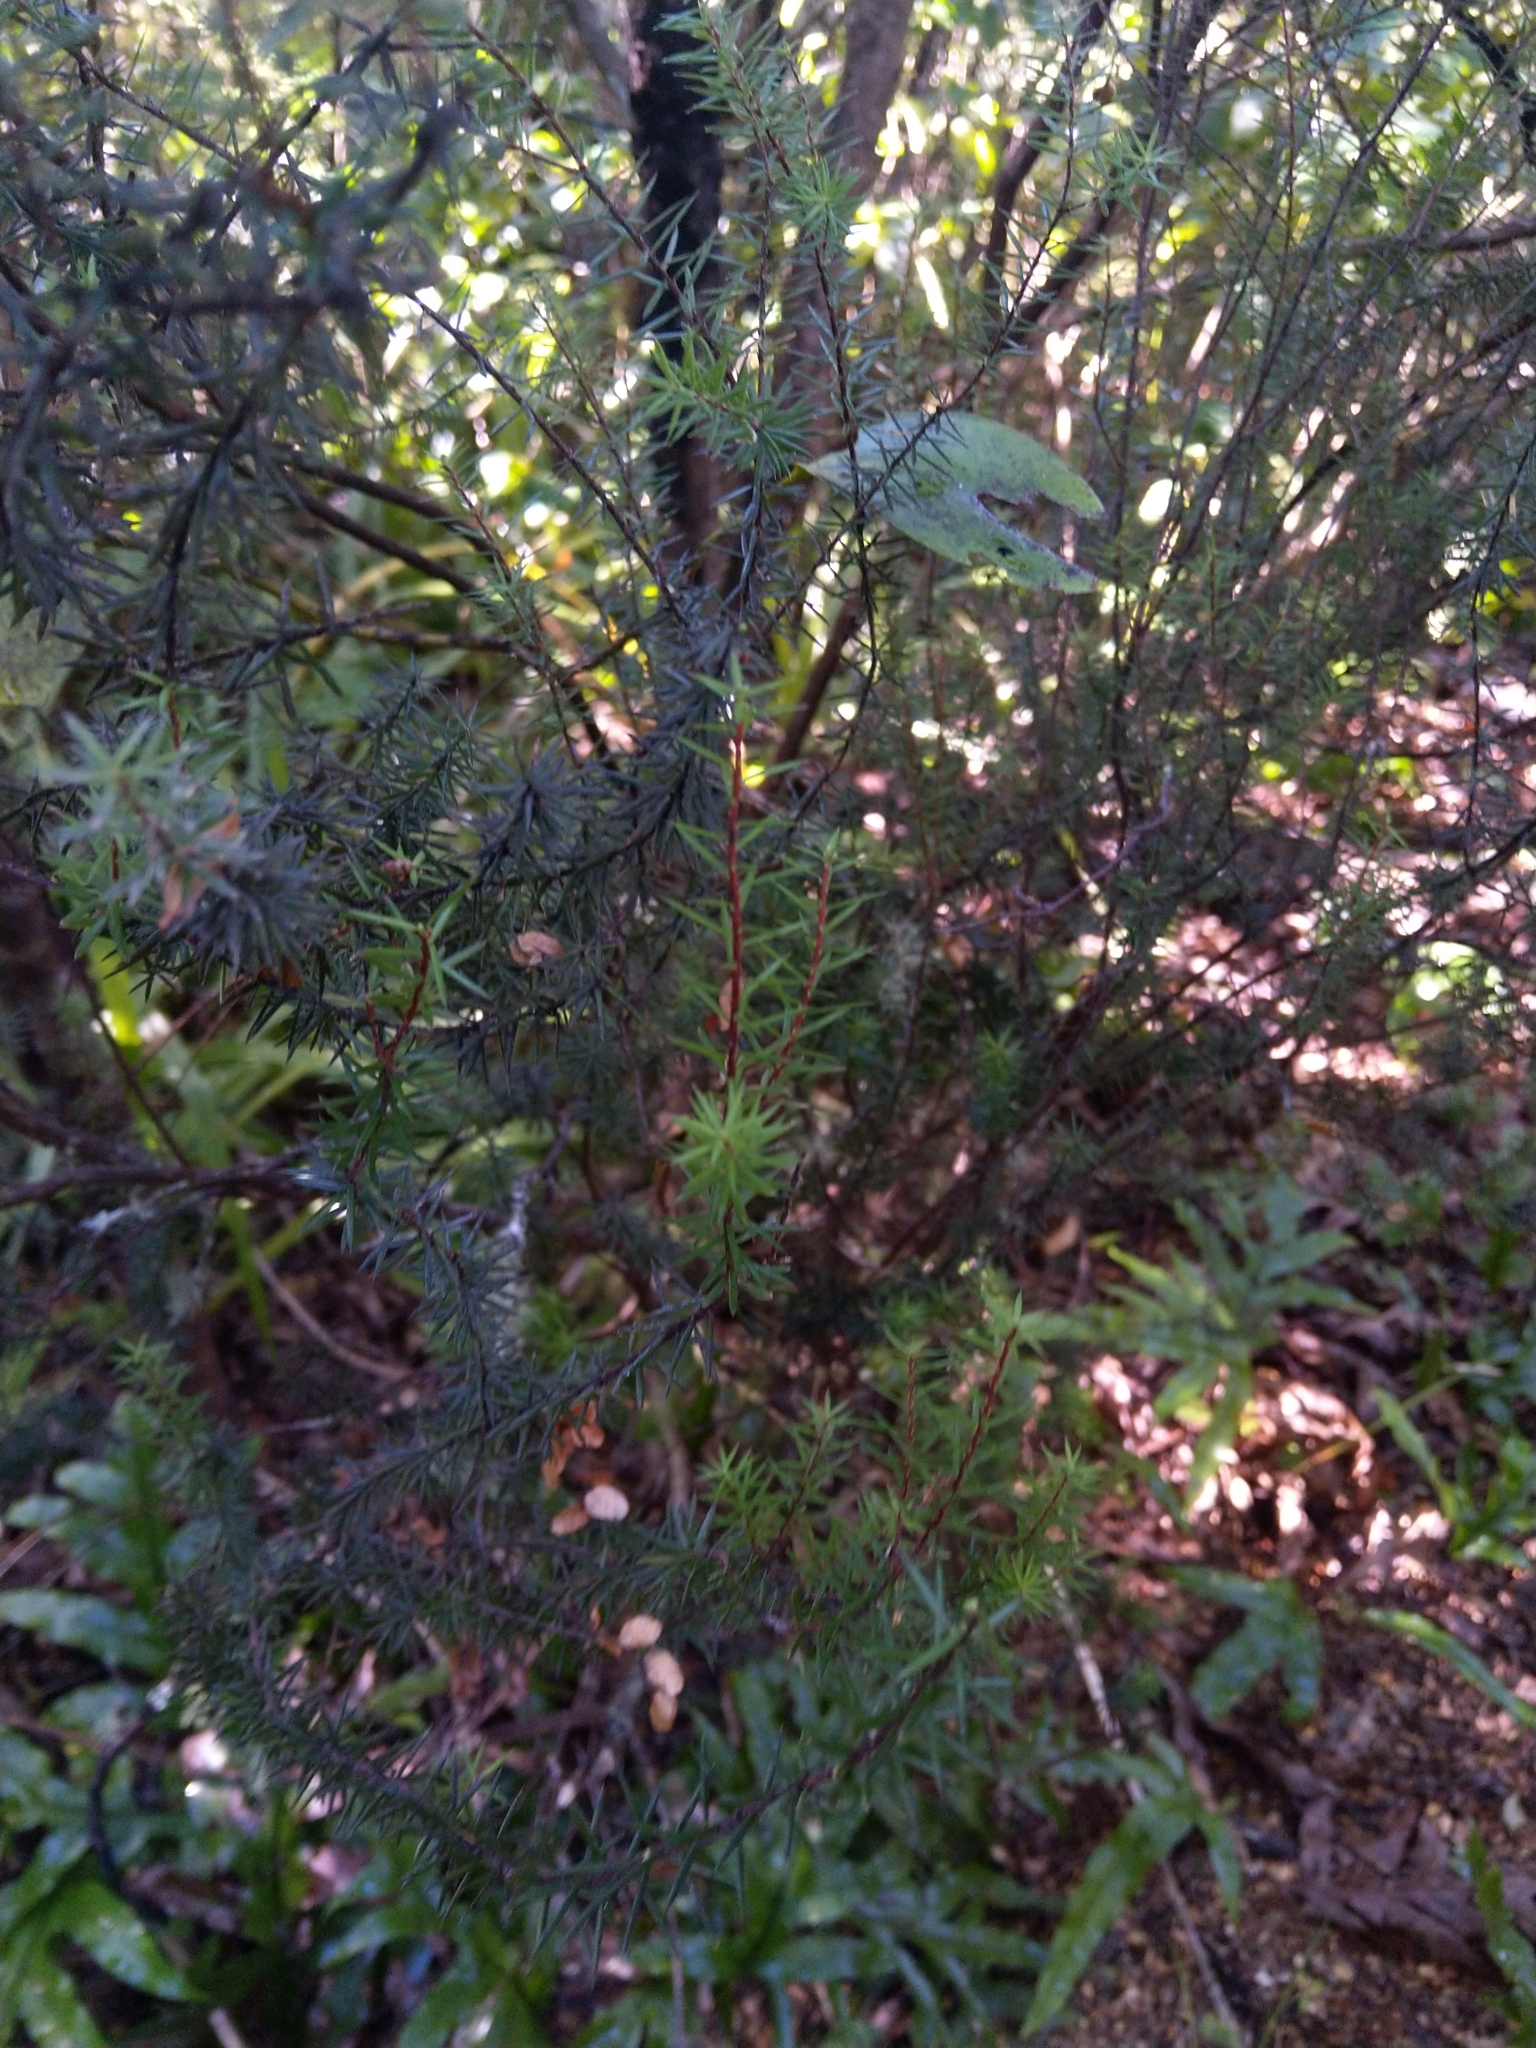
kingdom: Plantae
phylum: Tracheophyta
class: Magnoliopsida
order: Ericales
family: Ericaceae
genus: Leptecophylla
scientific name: Leptecophylla juniperina
